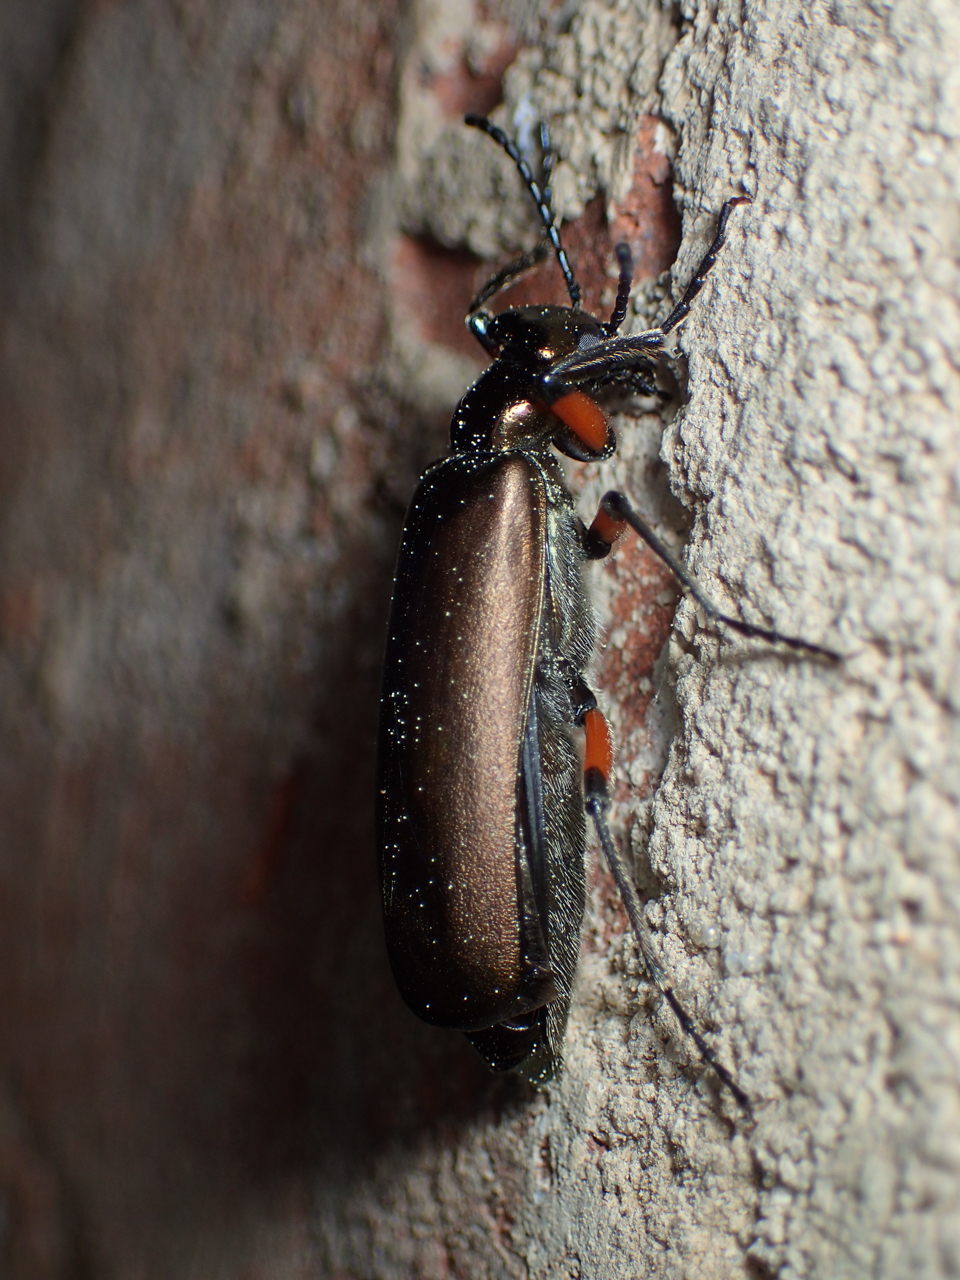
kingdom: Animalia
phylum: Arthropoda
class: Insecta
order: Coleoptera
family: Meloidae
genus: Lytta
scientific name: Lytta polita
